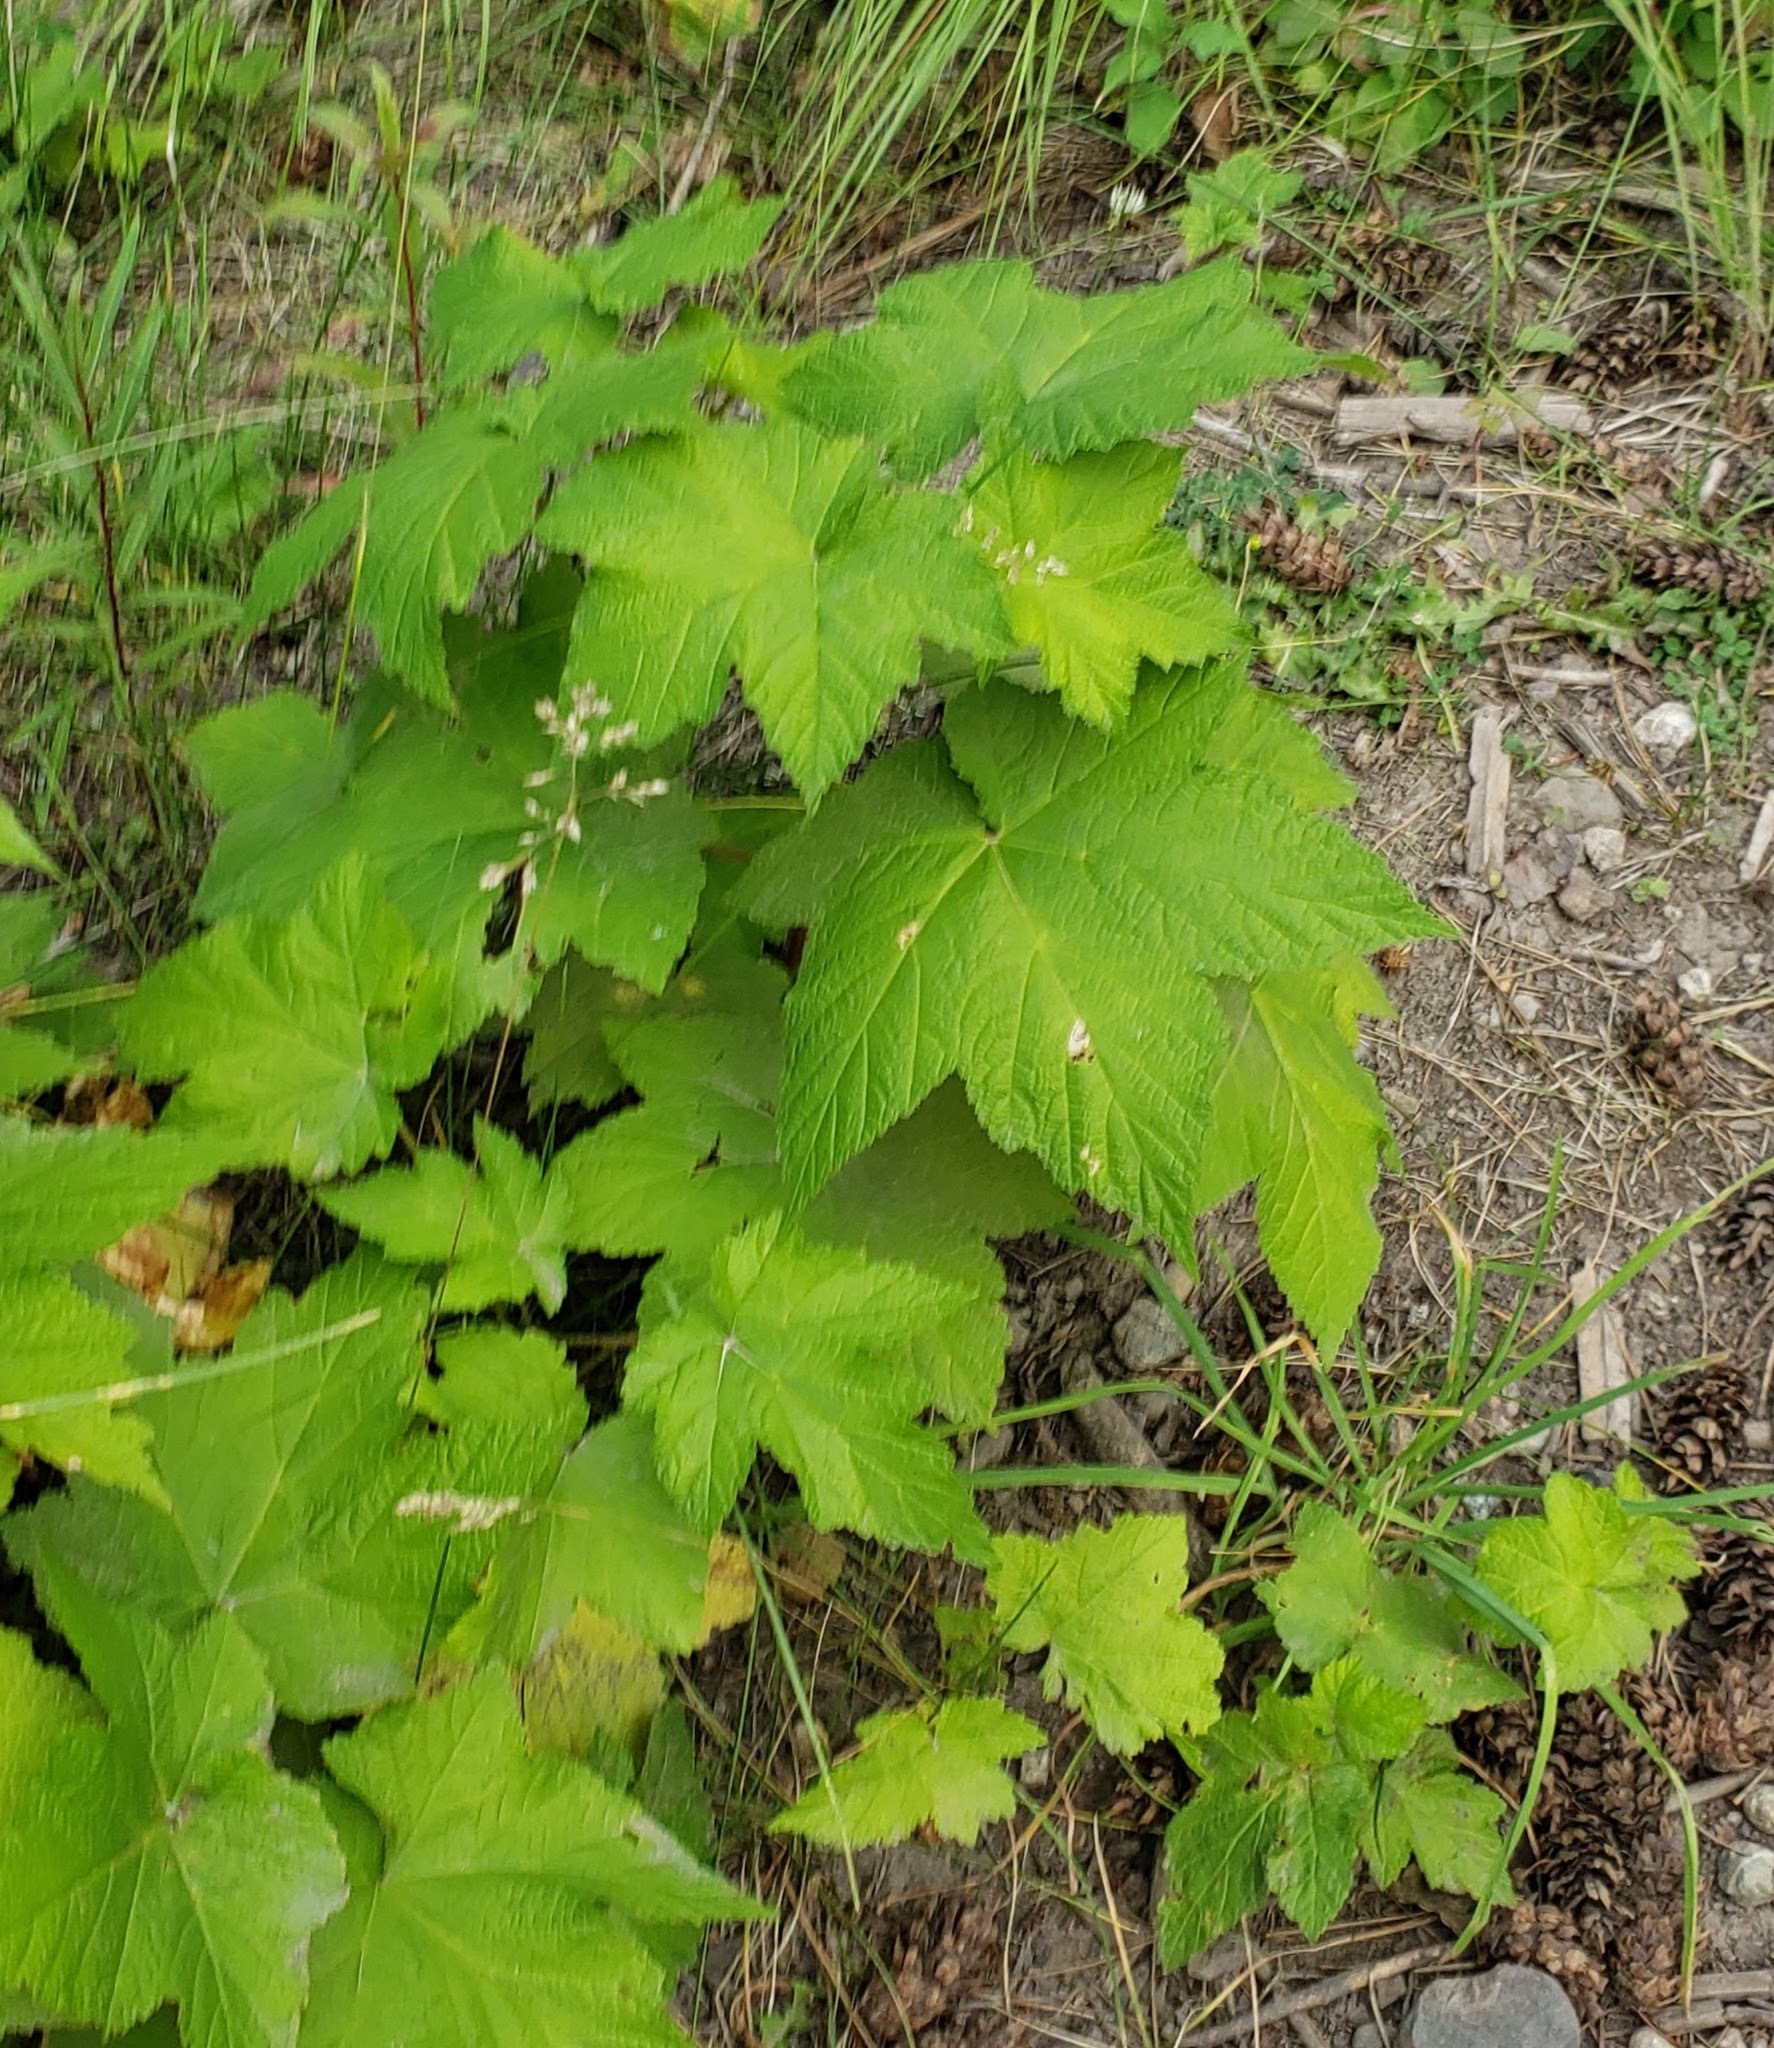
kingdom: Plantae
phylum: Tracheophyta
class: Magnoliopsida
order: Rosales
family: Rosaceae
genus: Rubus
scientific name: Rubus parviflorus
